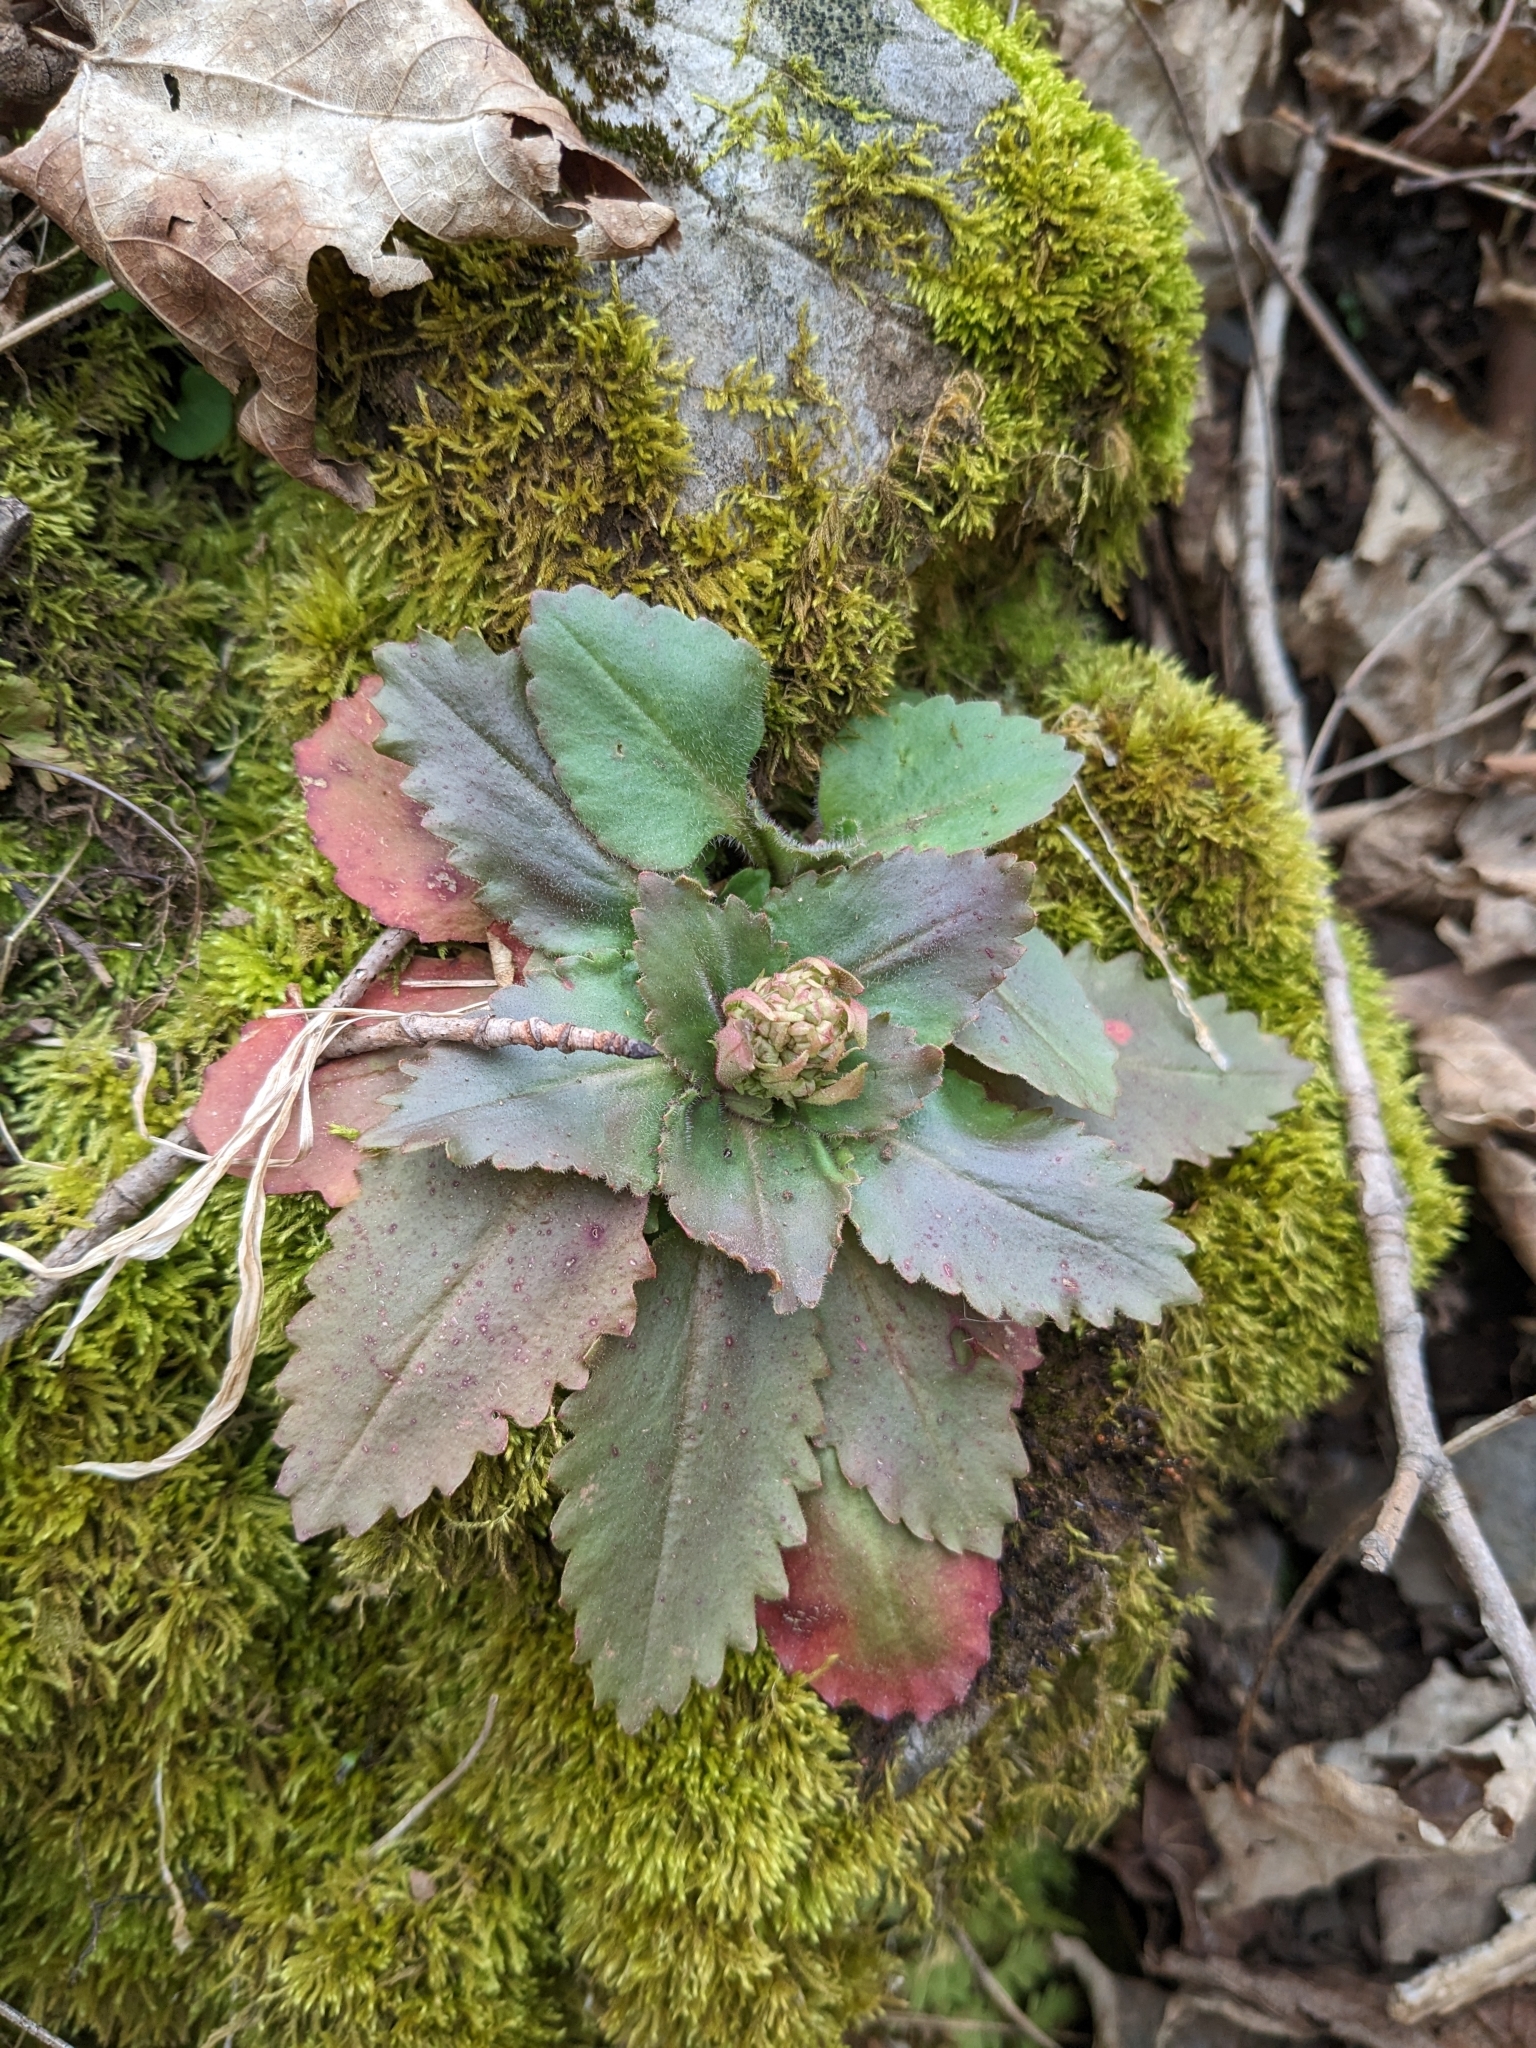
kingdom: Plantae
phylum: Tracheophyta
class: Magnoliopsida
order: Saxifragales
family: Saxifragaceae
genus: Micranthes
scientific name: Micranthes virginiensis
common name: Early saxifrage
